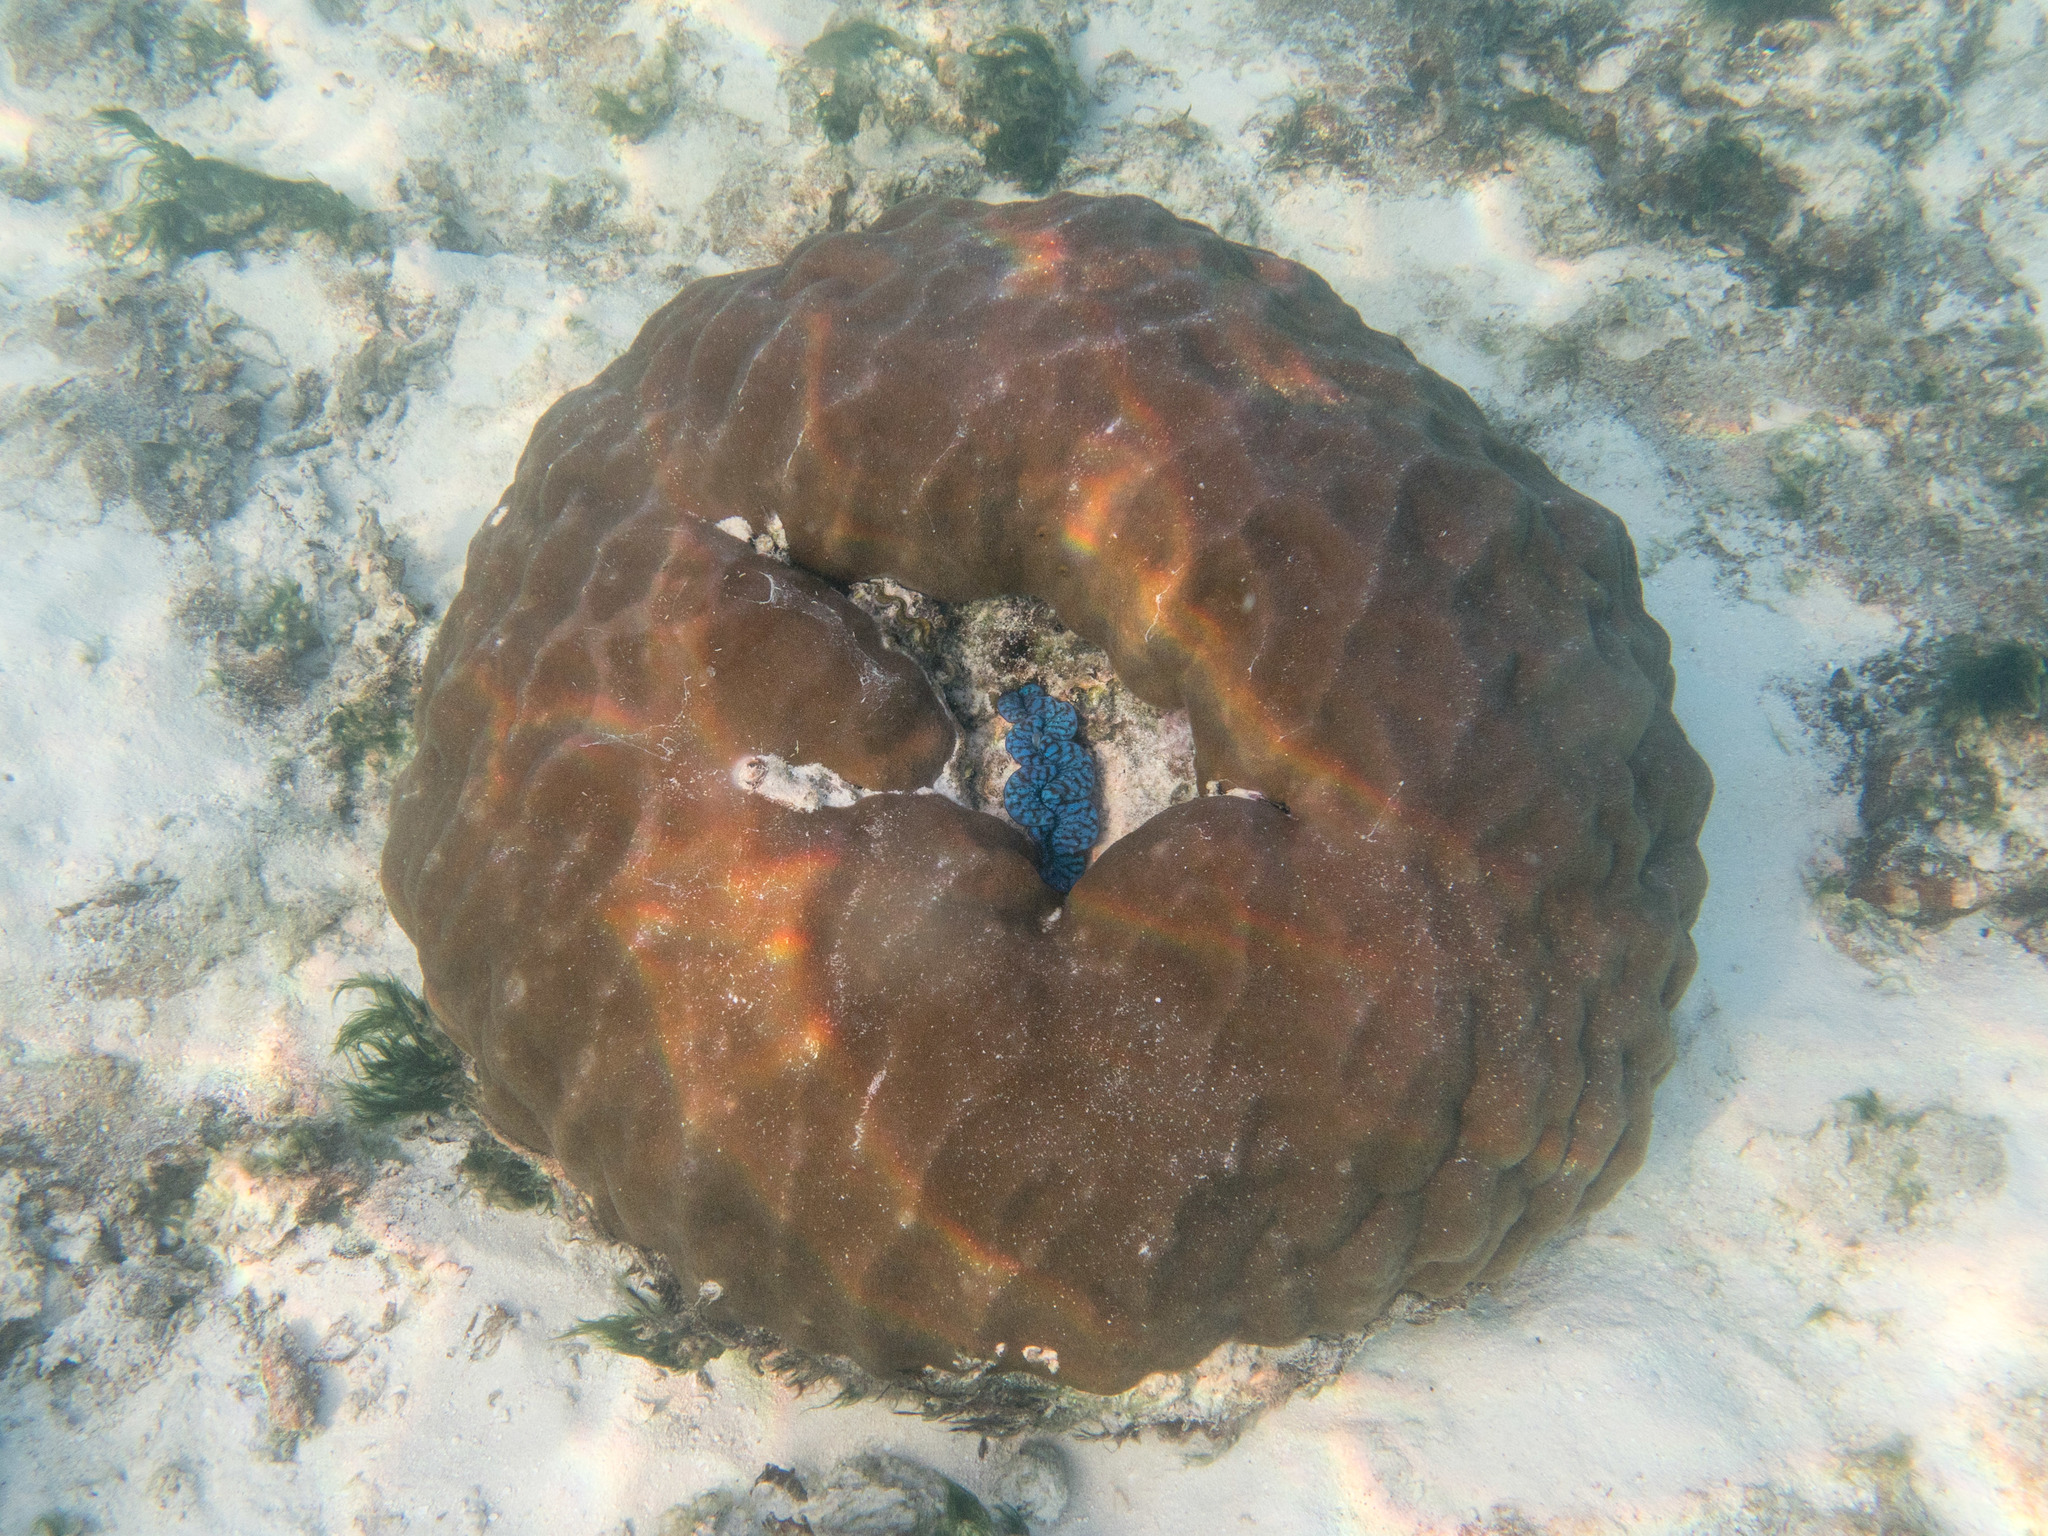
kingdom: Animalia
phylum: Mollusca
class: Bivalvia
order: Cardiida
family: Cardiidae
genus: Tridacna
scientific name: Tridacna maxima
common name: Small giant clam
